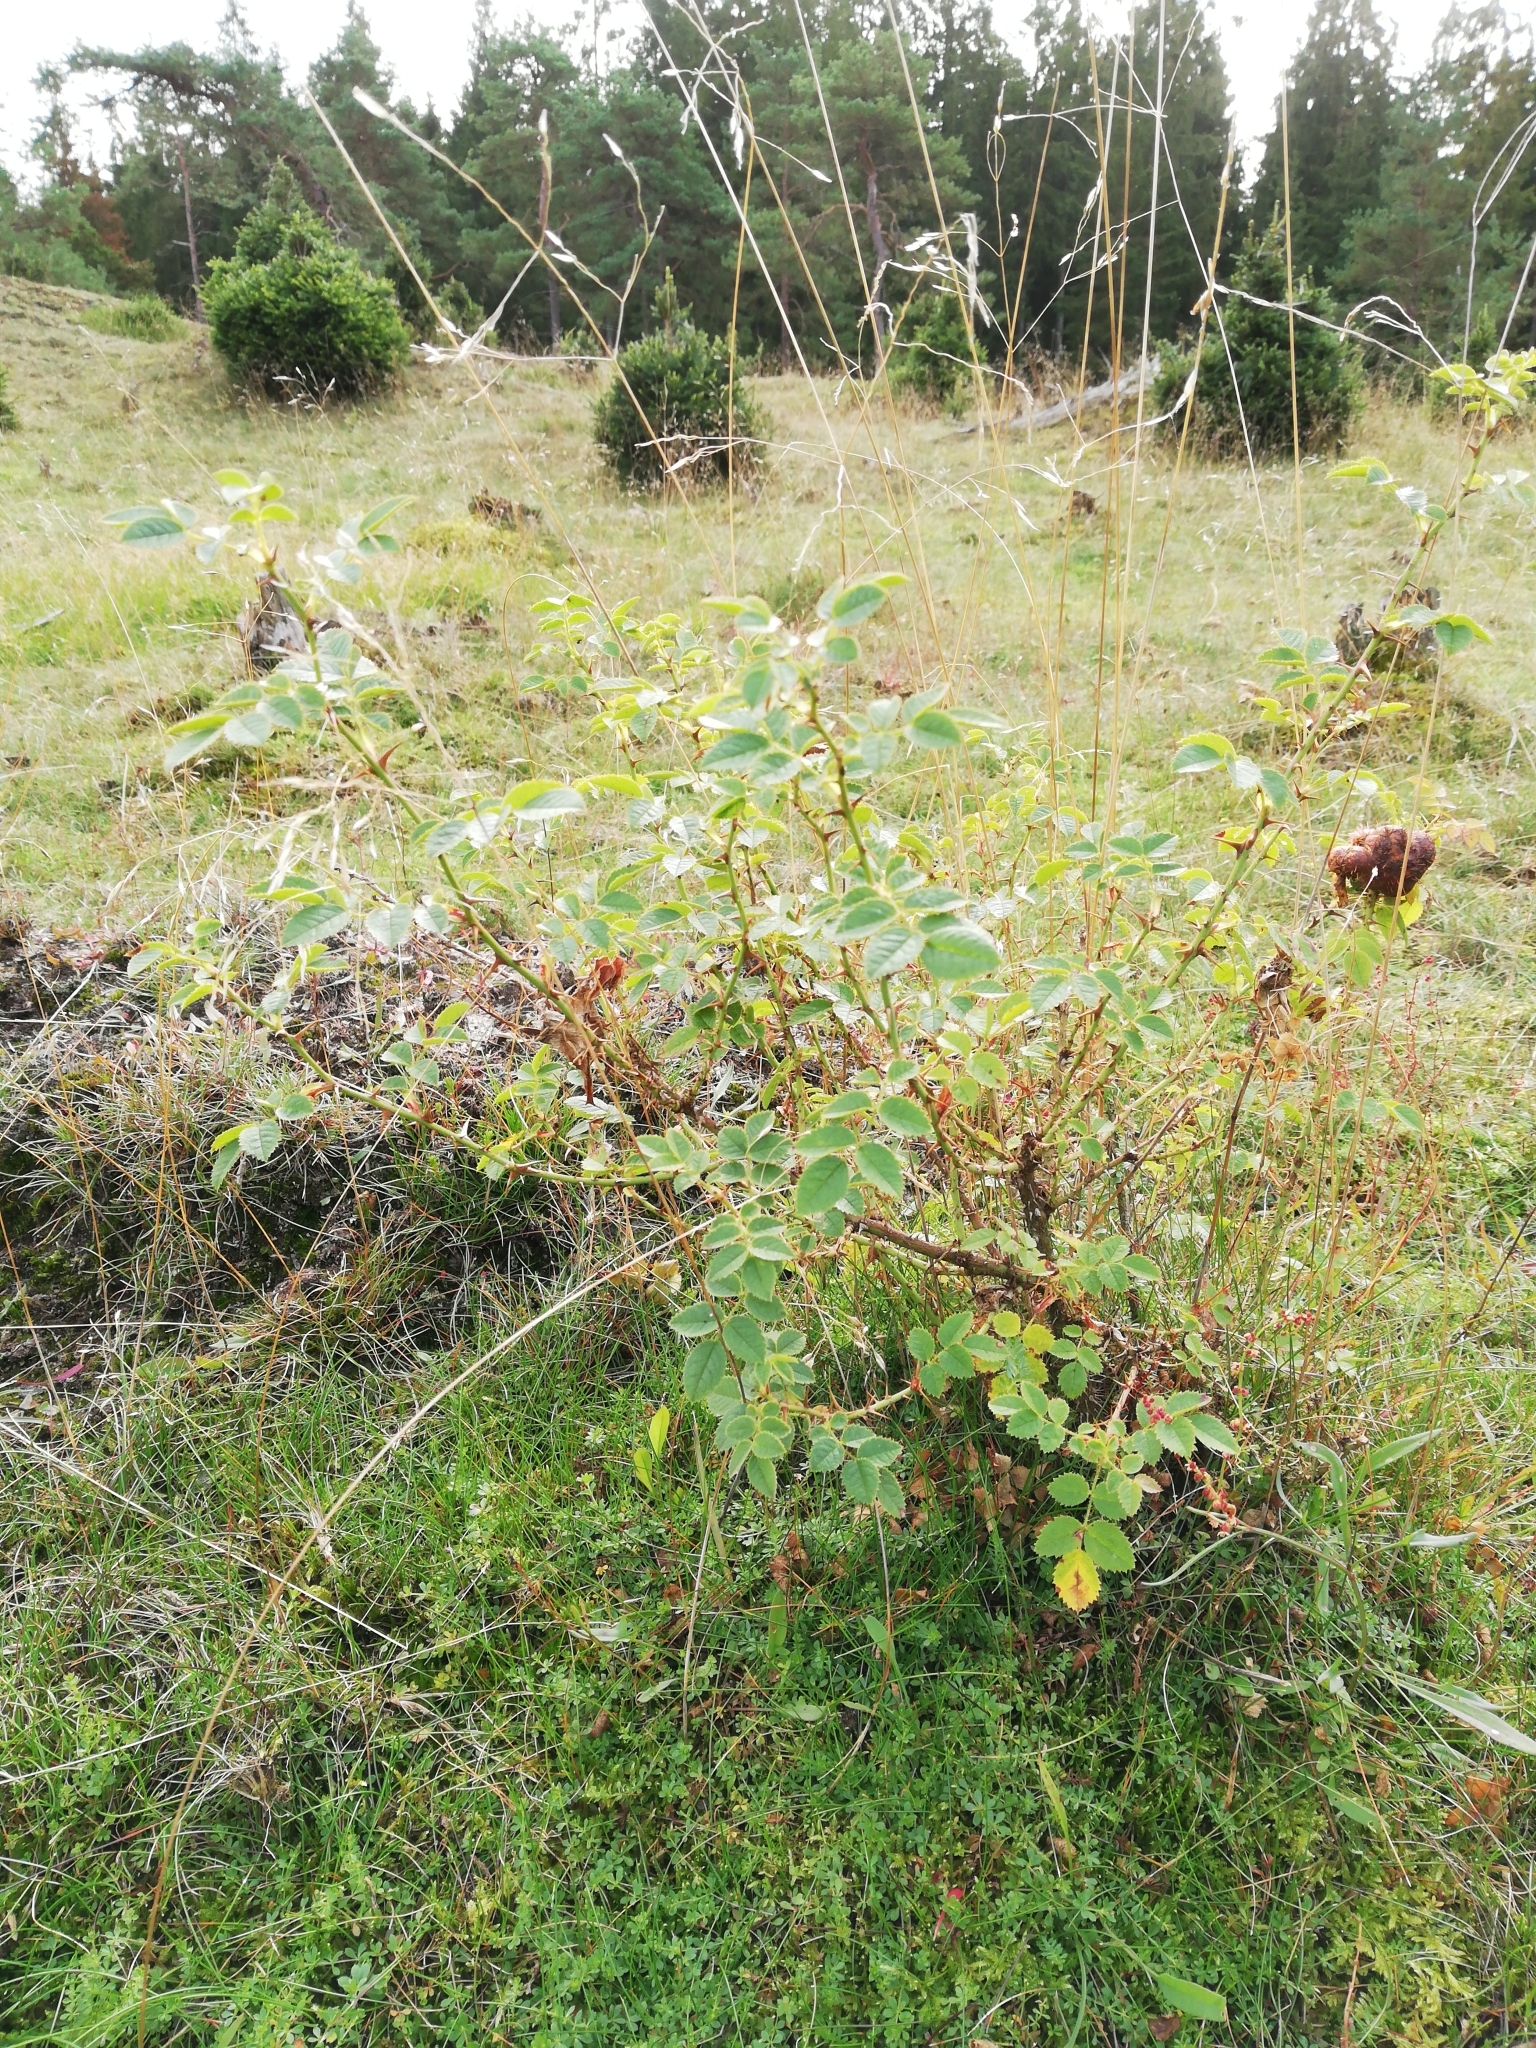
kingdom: Plantae
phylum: Tracheophyta
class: Magnoliopsida
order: Rosales
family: Rosaceae
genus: Rosa
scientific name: Rosa rubiginosa
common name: Sweet-briar
